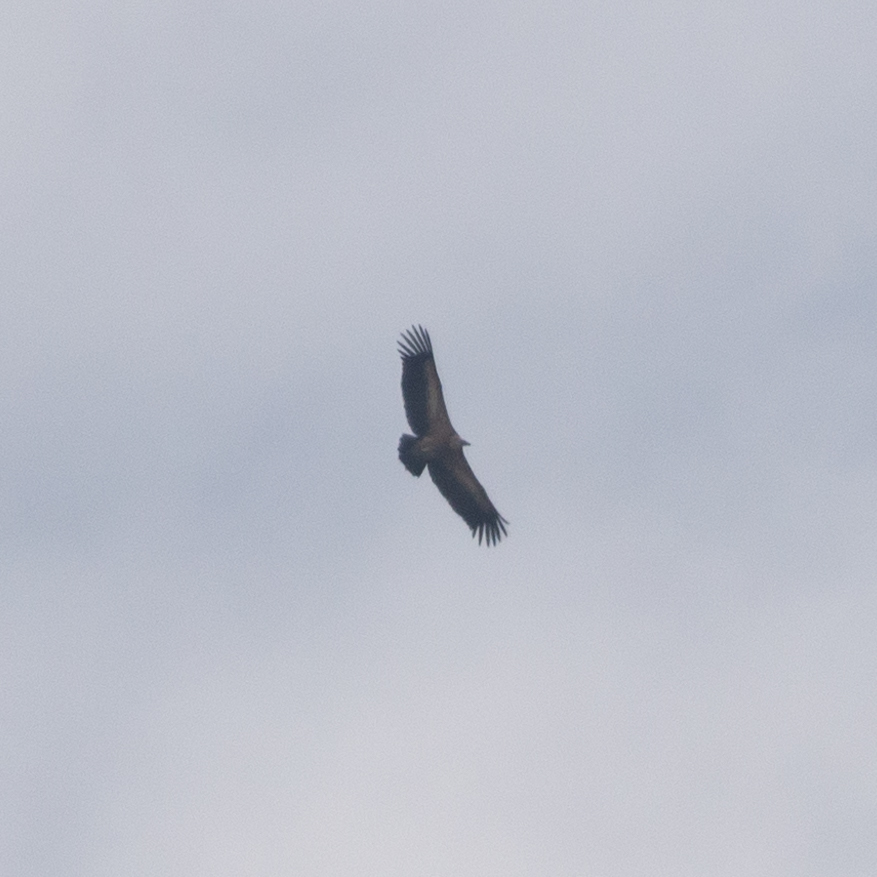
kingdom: Animalia
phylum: Chordata
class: Aves
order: Accipitriformes
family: Accipitridae
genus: Gyps
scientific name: Gyps fulvus
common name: Griffon vulture
